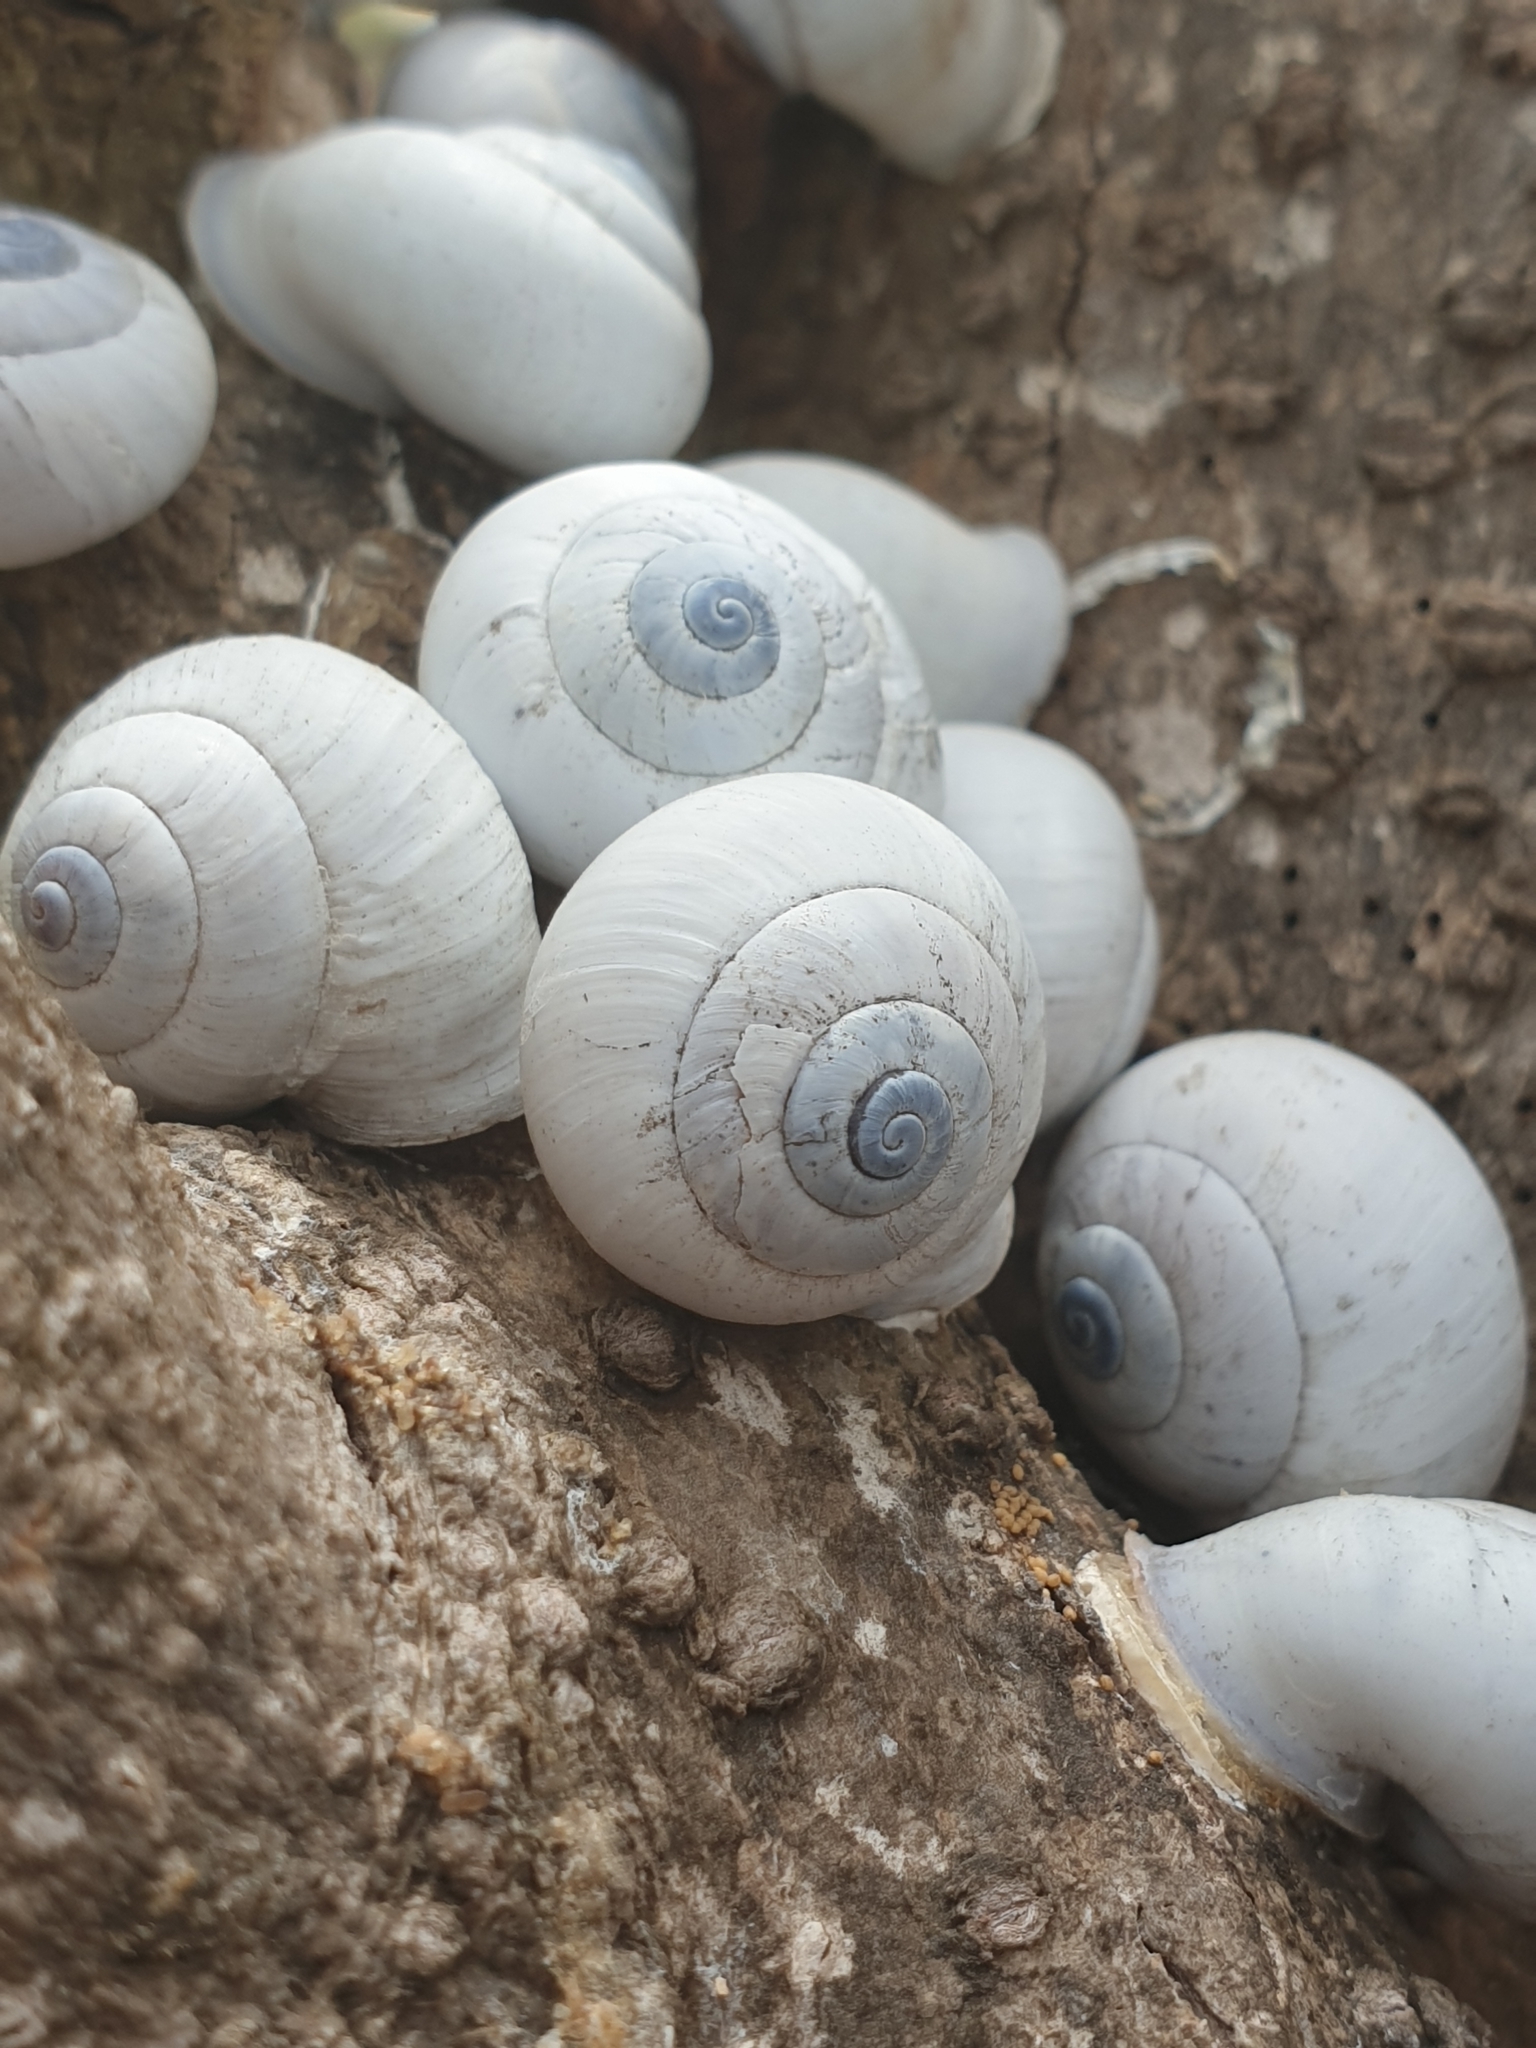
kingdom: Animalia
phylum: Mollusca
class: Gastropoda
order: Stylommatophora
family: Camaenidae
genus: Pseudotrachia
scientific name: Pseudotrachia vittata
